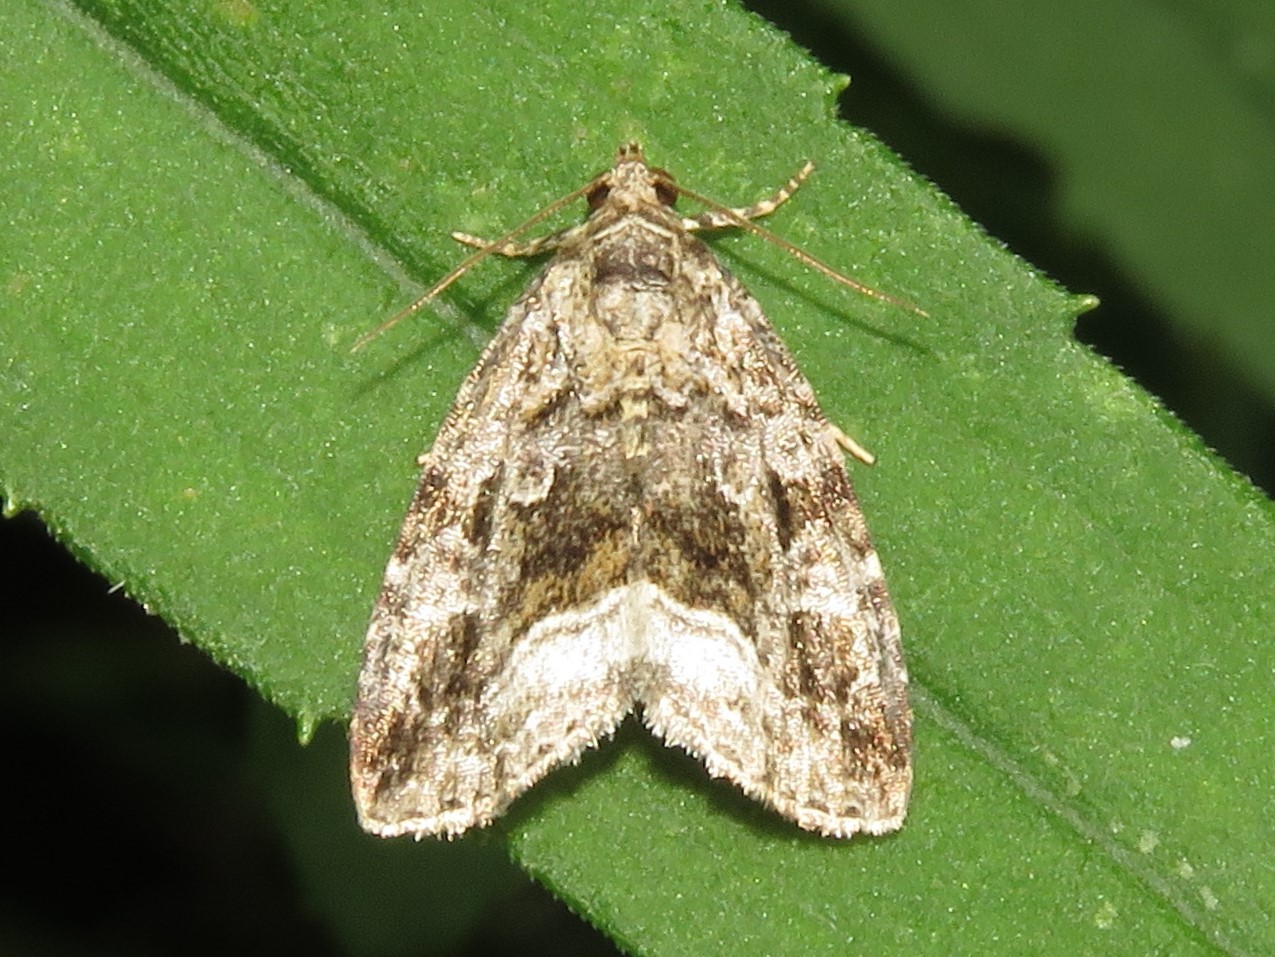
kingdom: Animalia
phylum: Arthropoda
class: Insecta
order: Lepidoptera
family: Noctuidae
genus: Protodeltote
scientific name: Protodeltote muscosula
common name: Large mossy glyph
